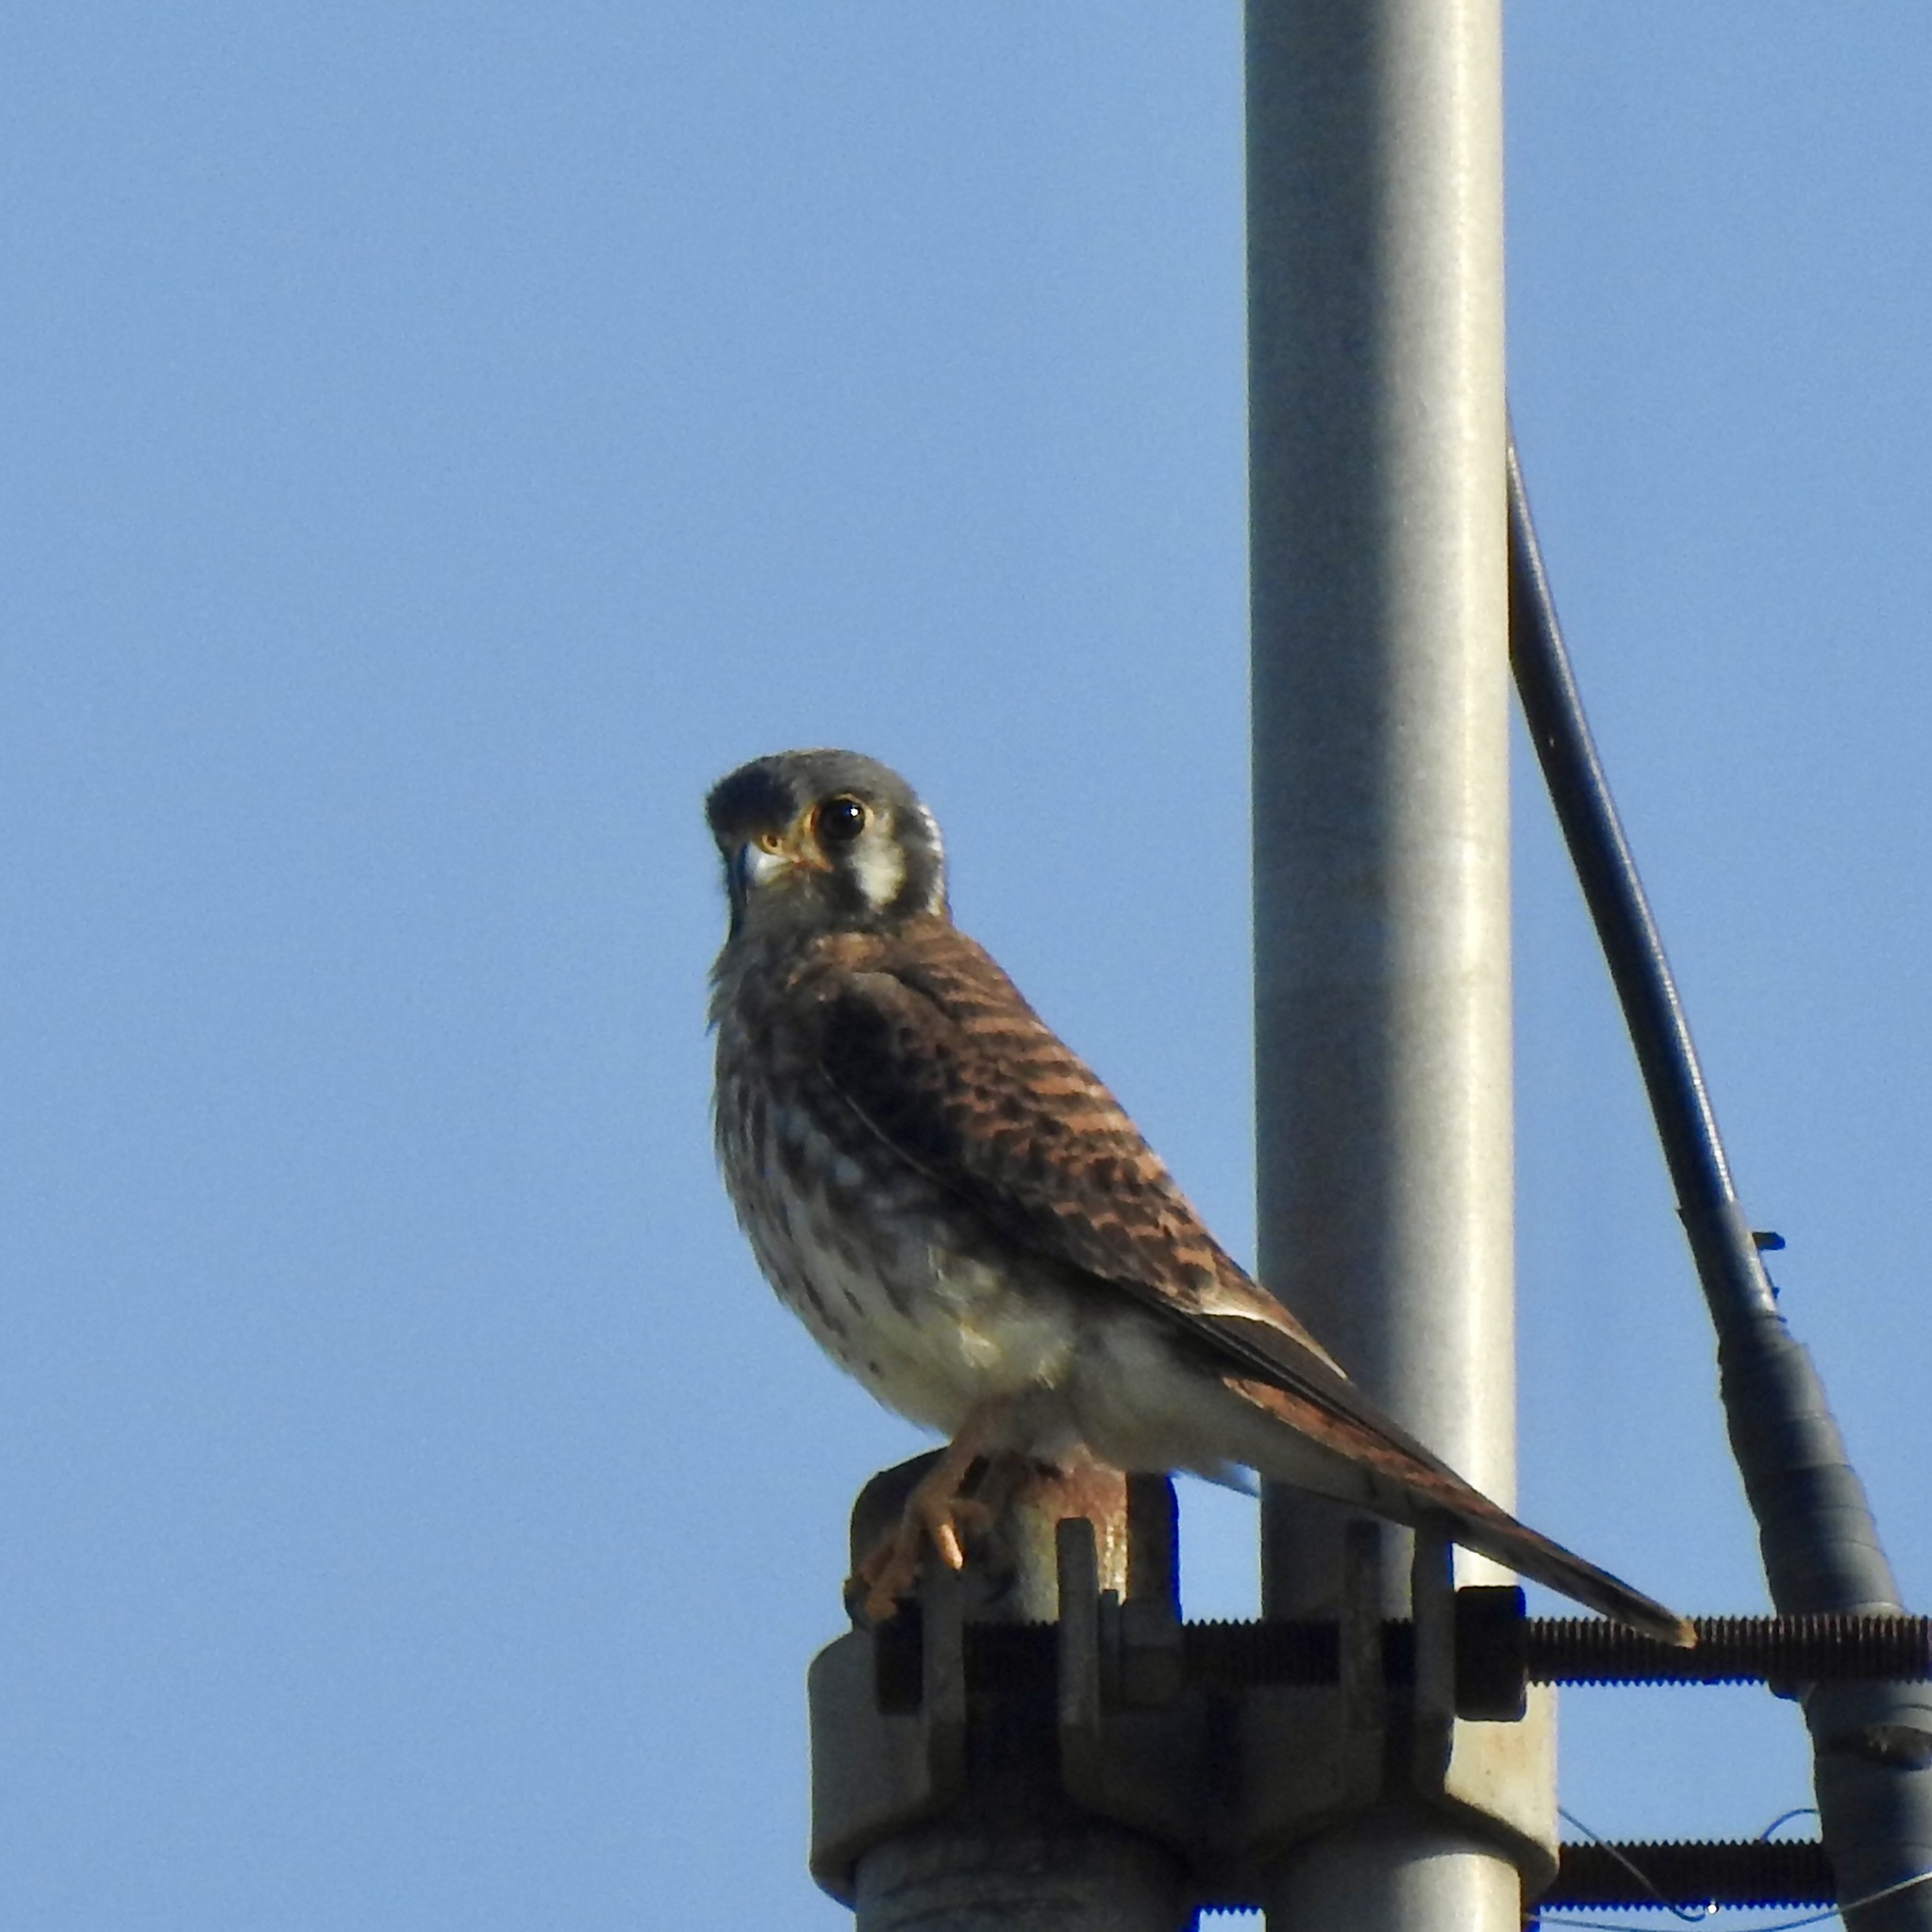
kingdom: Animalia
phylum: Chordata
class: Aves
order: Falconiformes
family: Falconidae
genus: Falco
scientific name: Falco sparverius
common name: American kestrel
